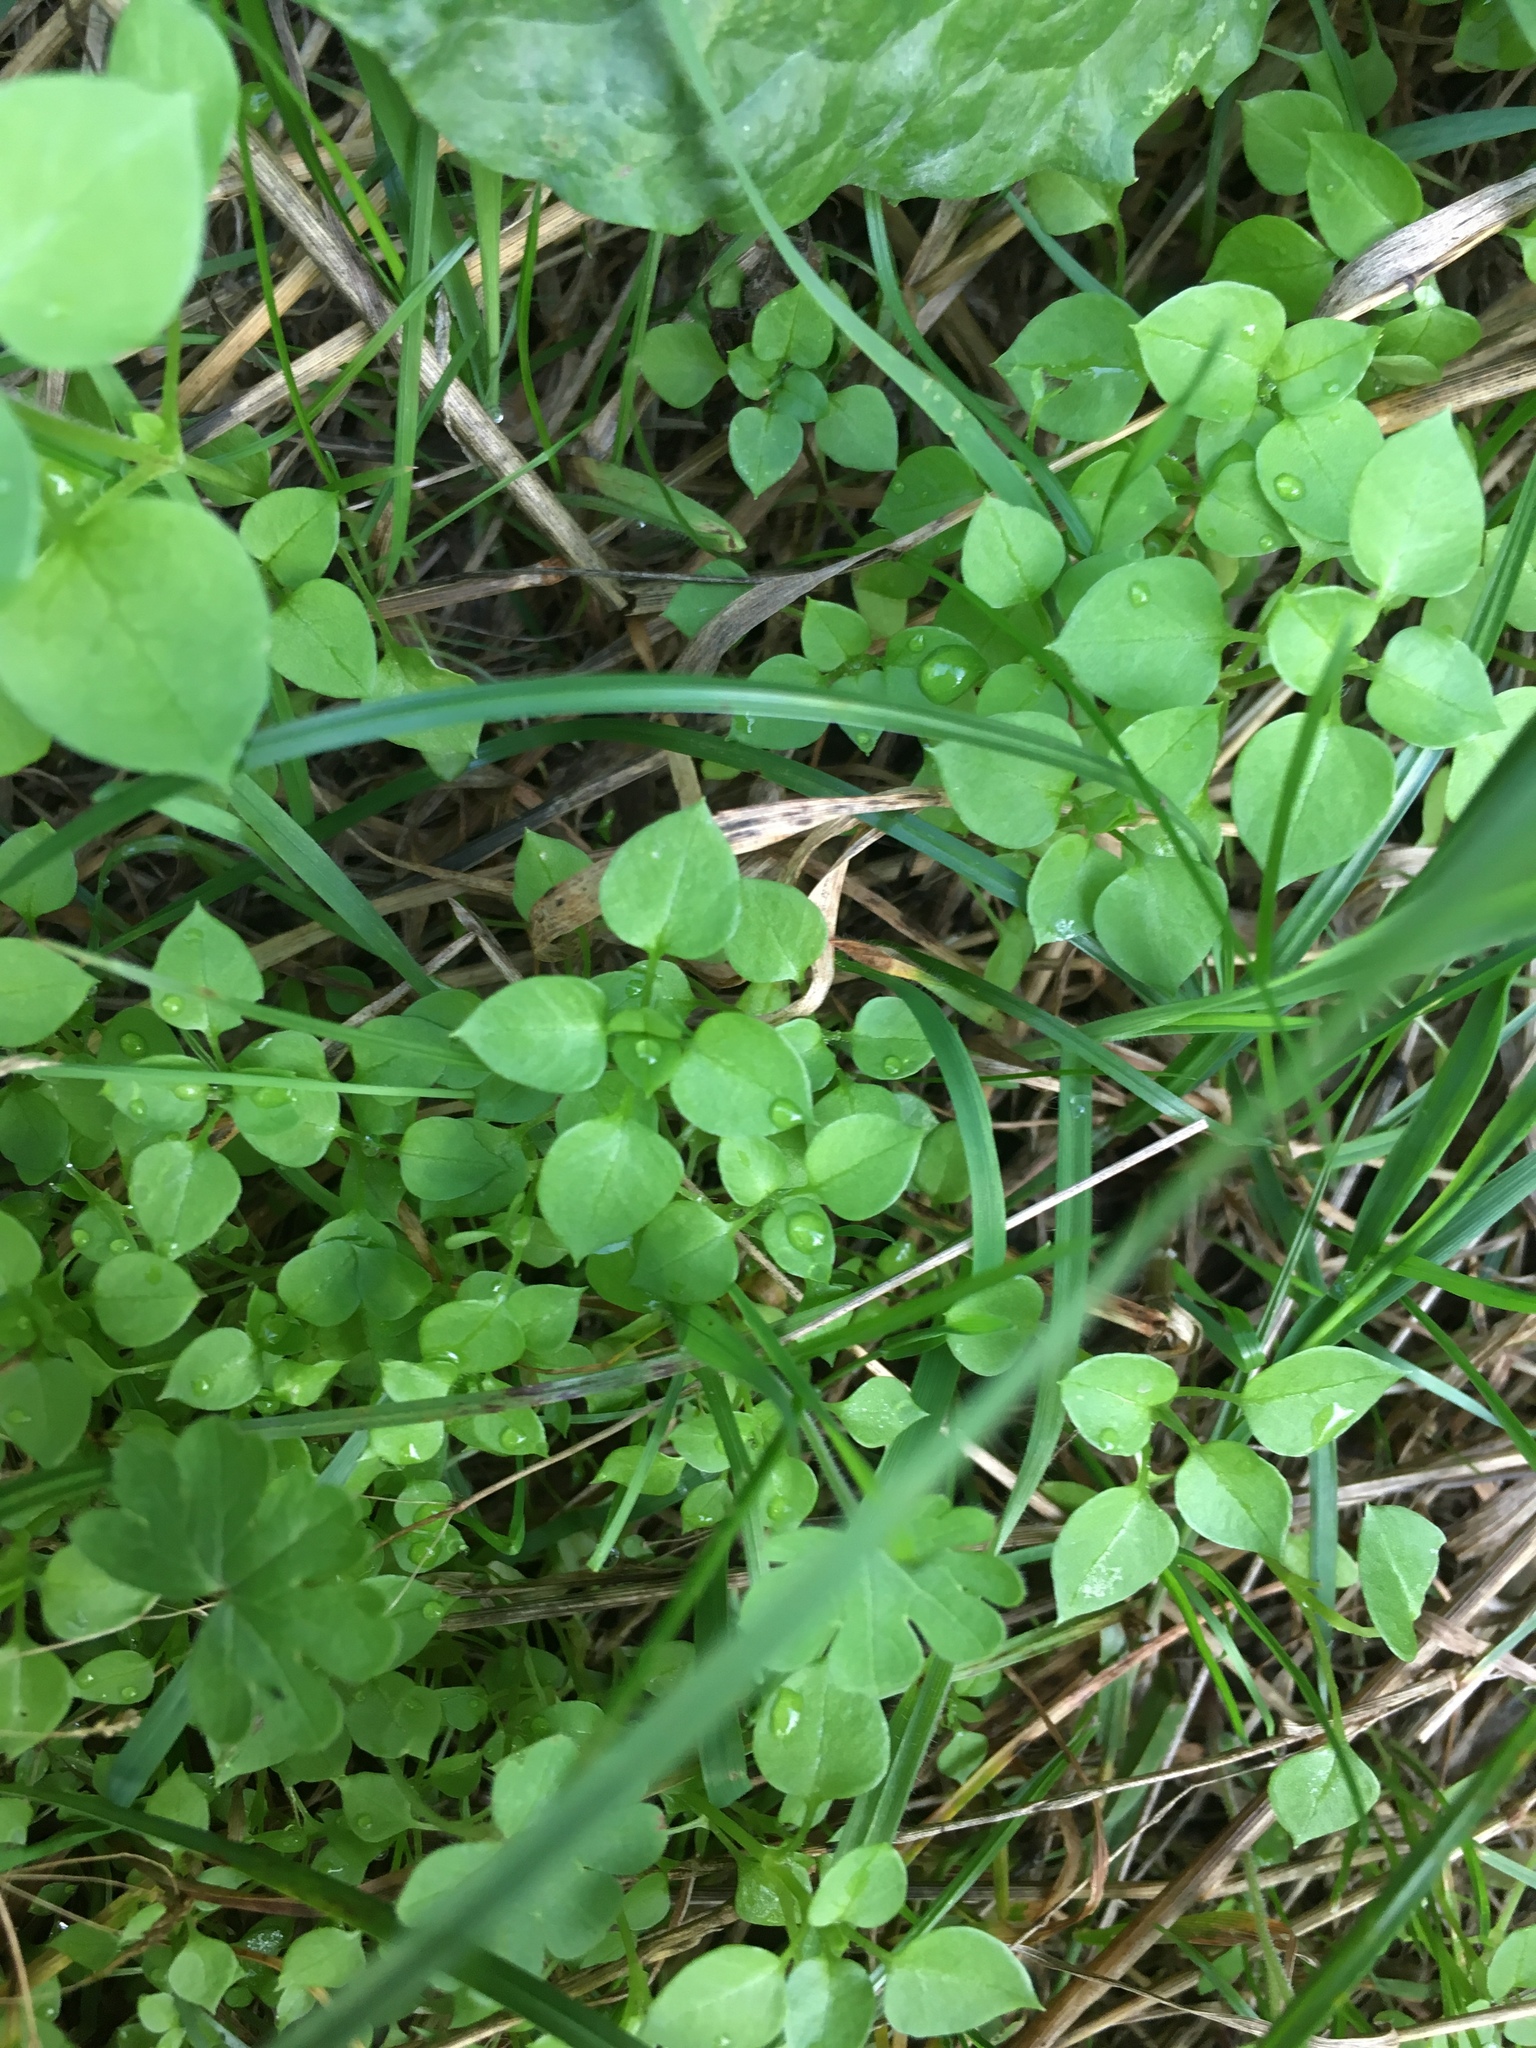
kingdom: Plantae
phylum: Tracheophyta
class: Magnoliopsida
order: Caryophyllales
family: Caryophyllaceae
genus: Stellaria
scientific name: Stellaria media
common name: Common chickweed
